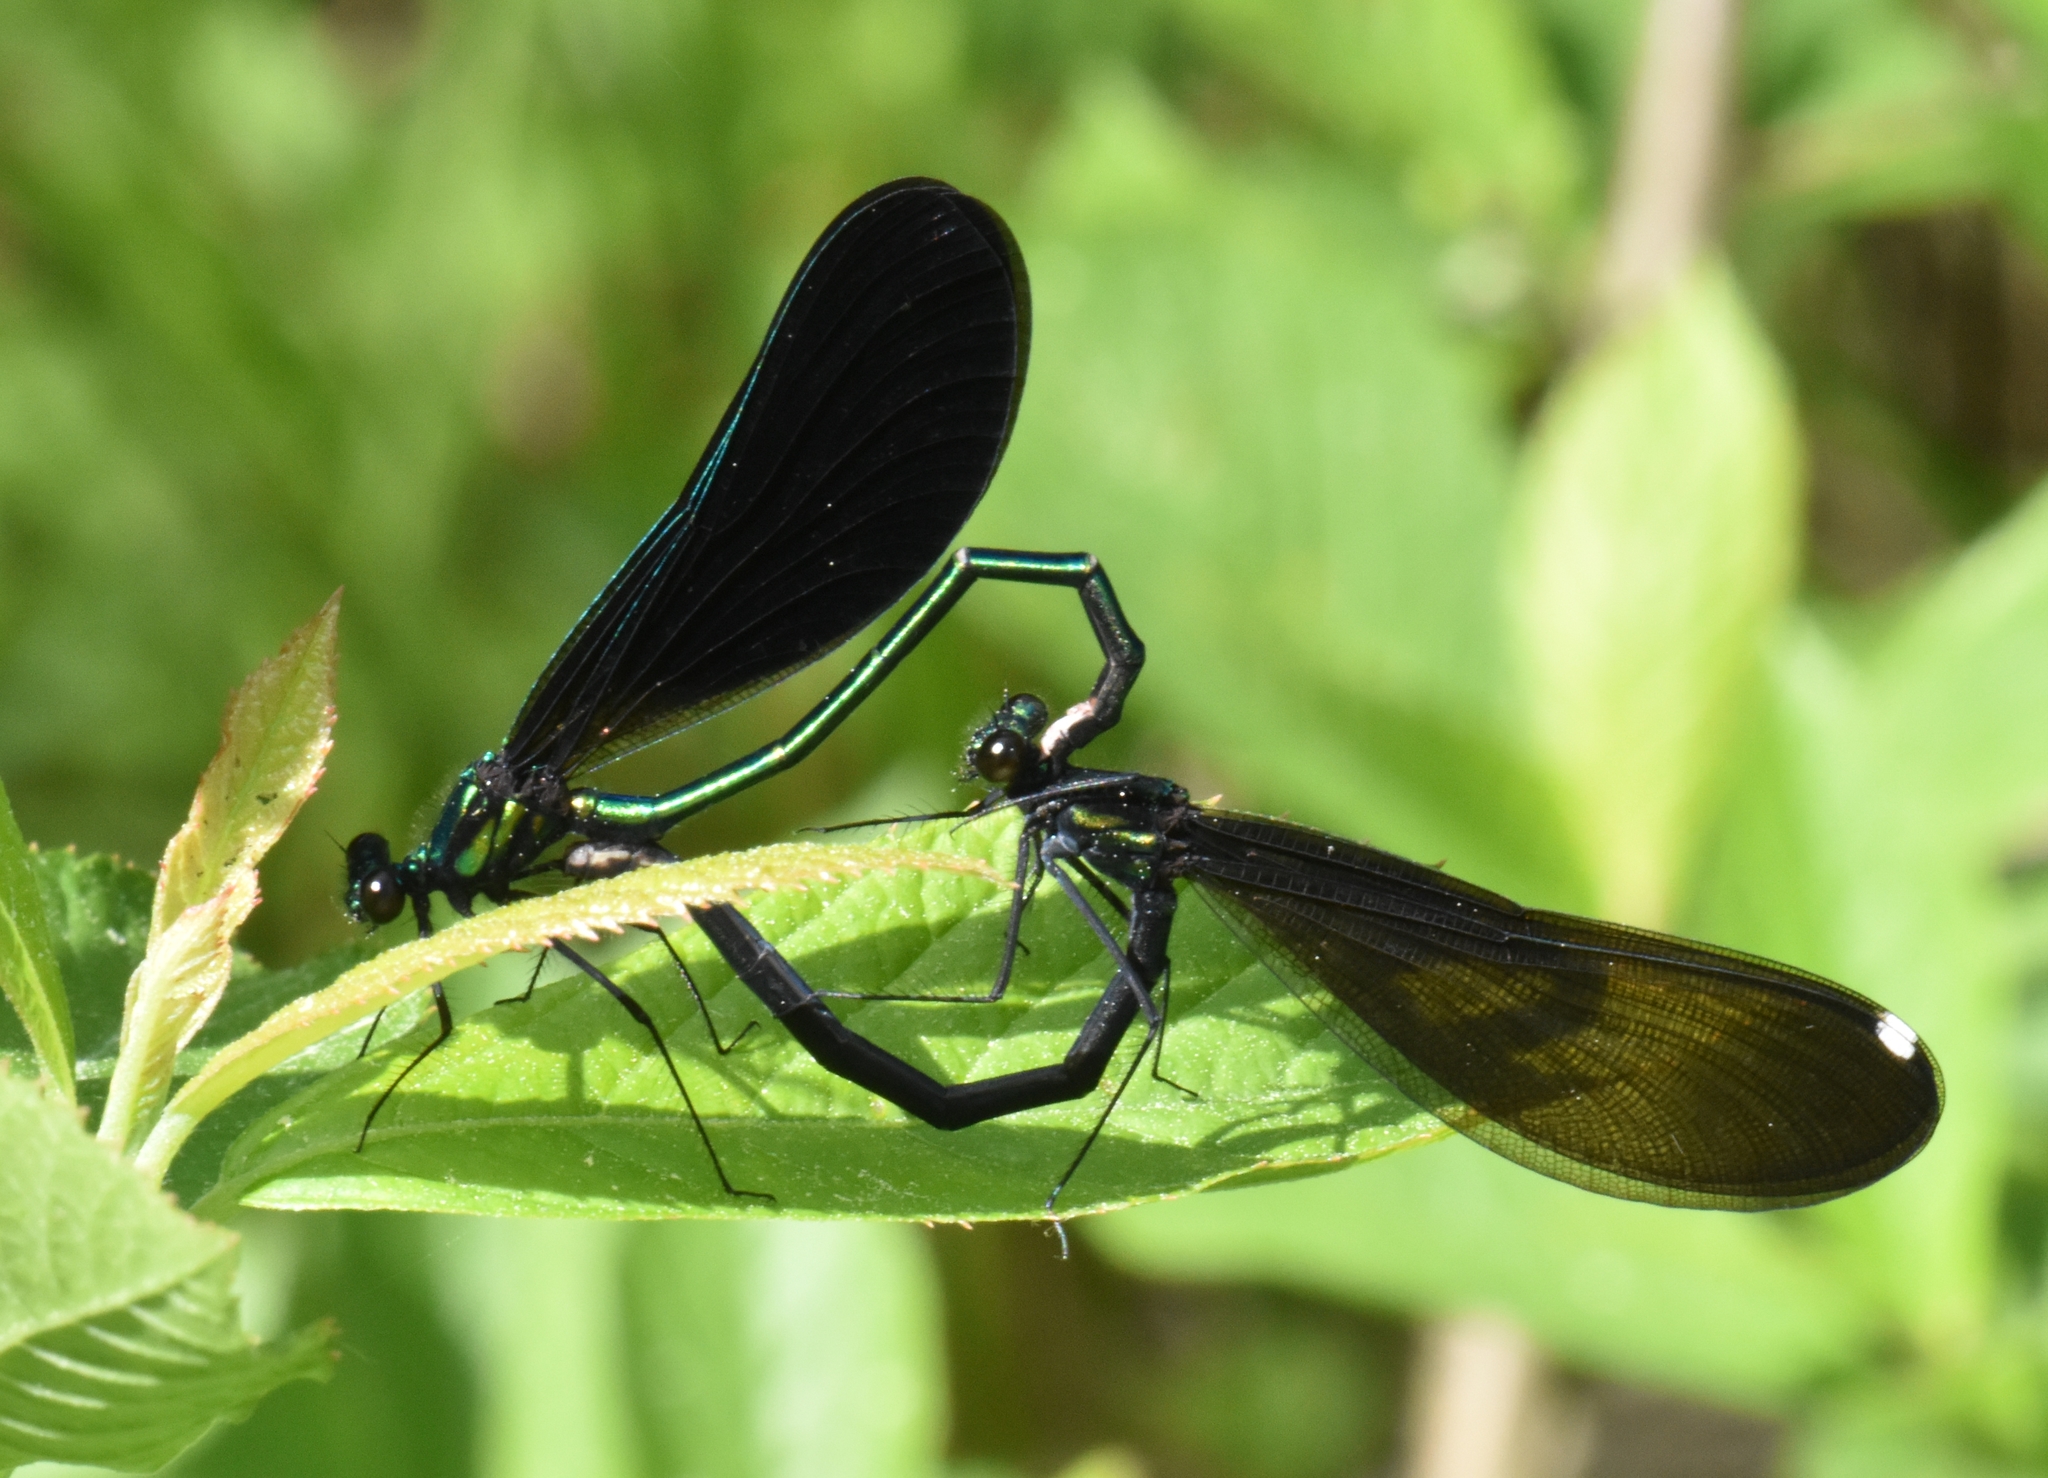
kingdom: Animalia
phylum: Arthropoda
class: Insecta
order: Odonata
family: Calopterygidae
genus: Calopteryx
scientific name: Calopteryx maculata
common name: Ebony jewelwing
